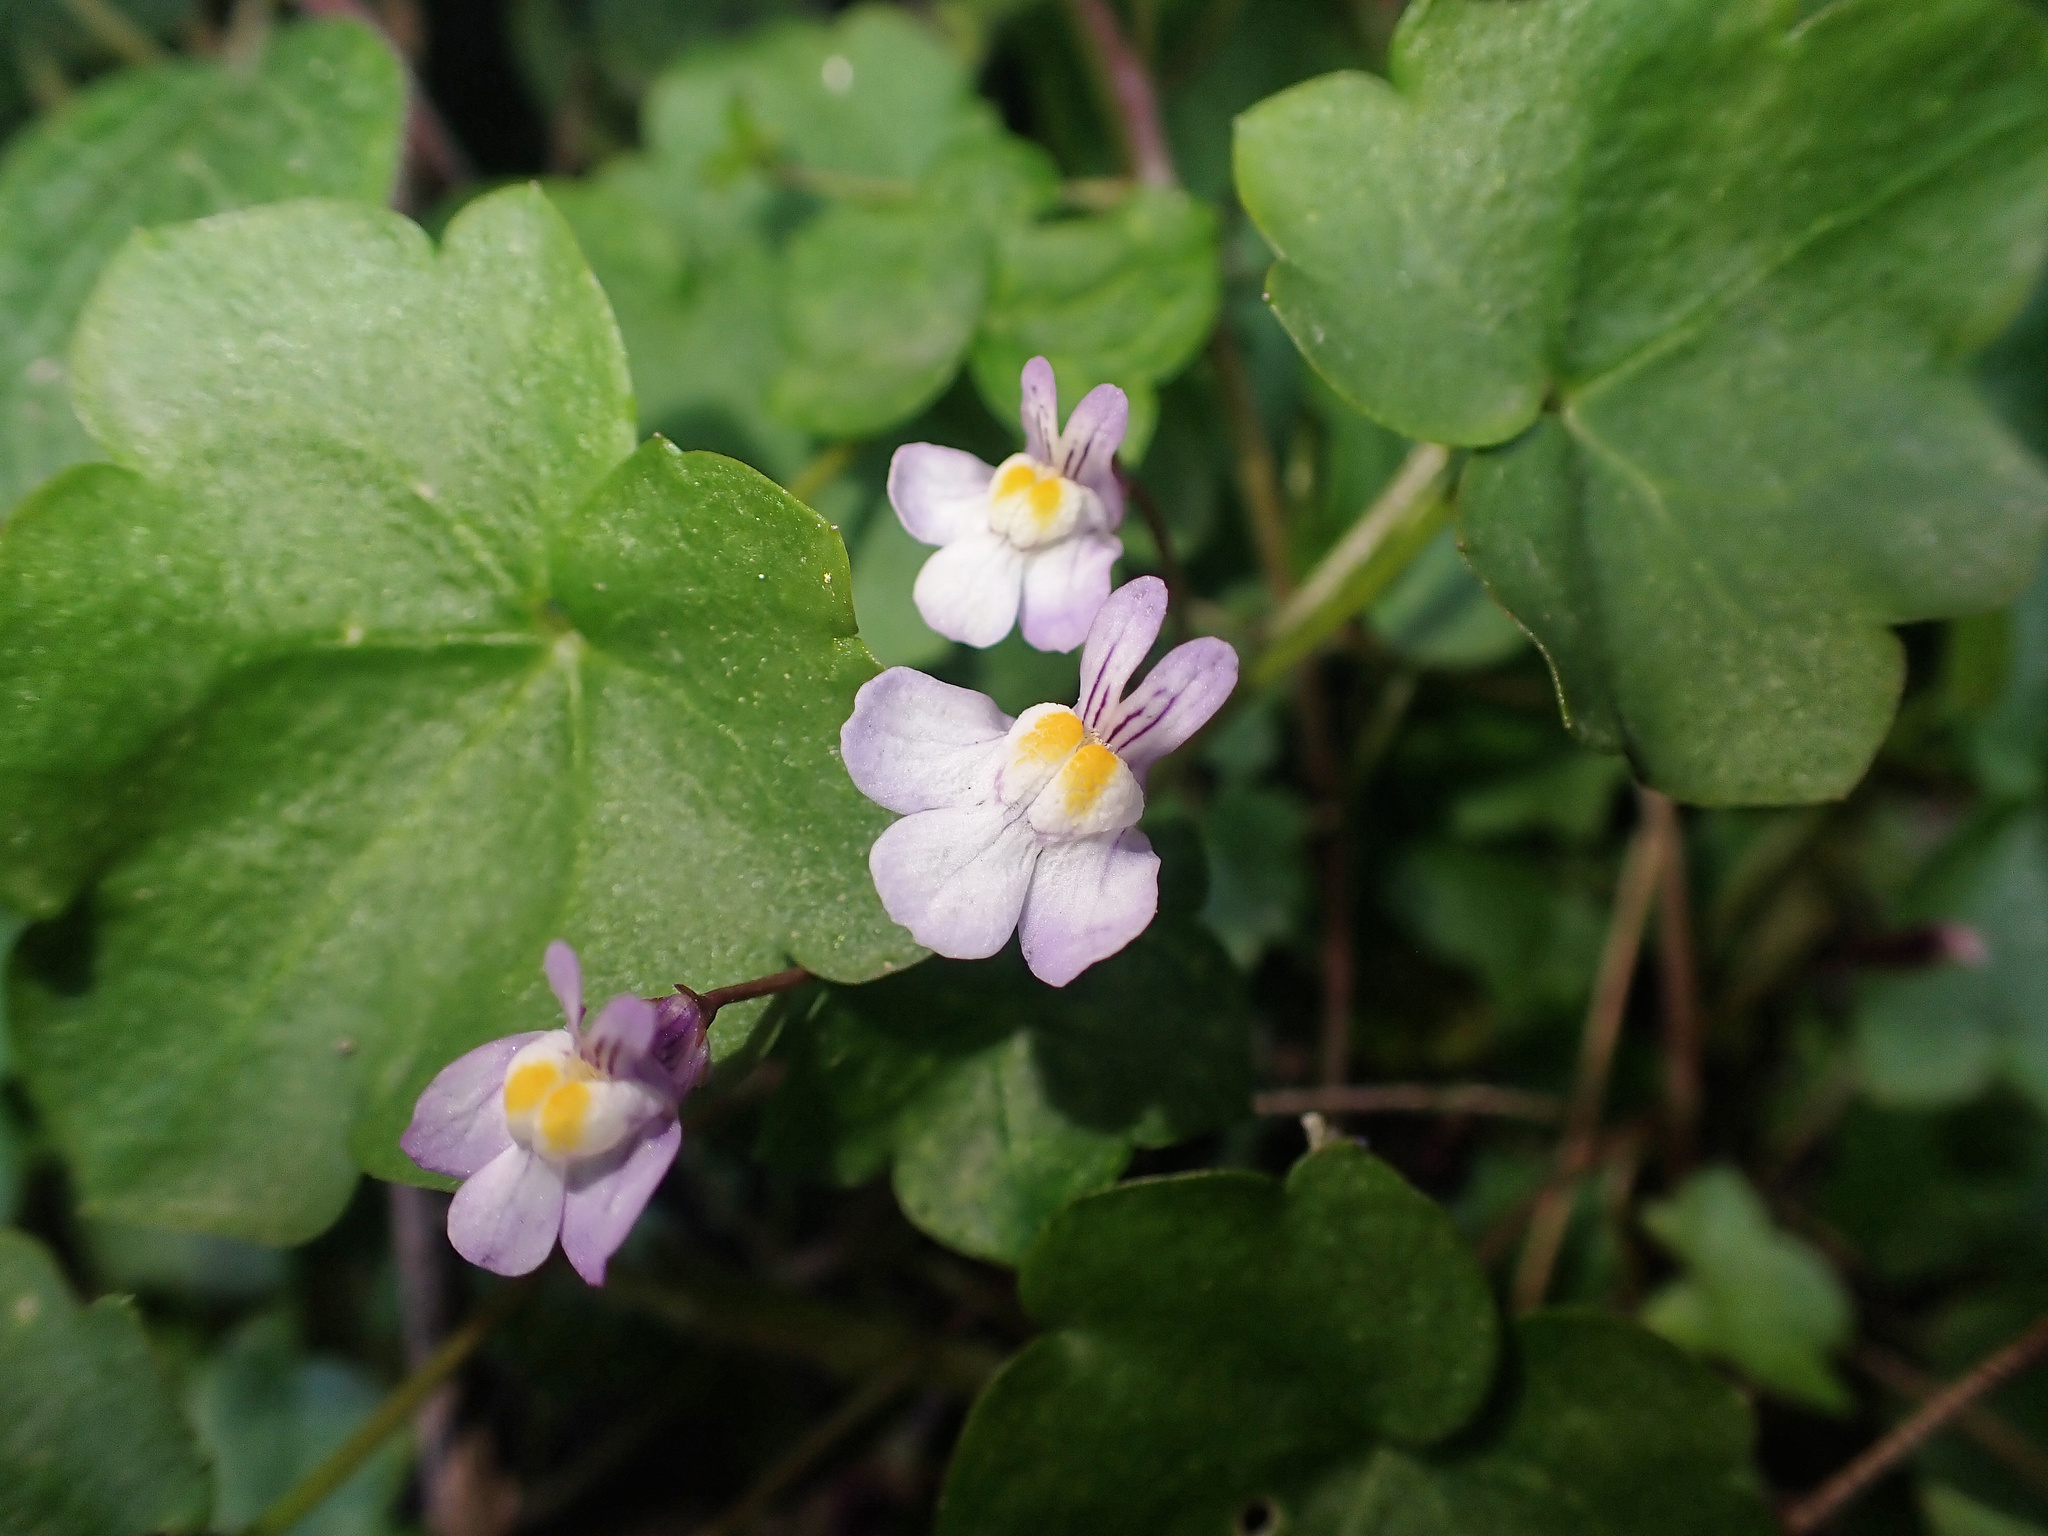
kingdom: Plantae
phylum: Tracheophyta
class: Magnoliopsida
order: Lamiales
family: Plantaginaceae
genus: Cymbalaria
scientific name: Cymbalaria muralis
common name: Ivy-leaved toadflax
